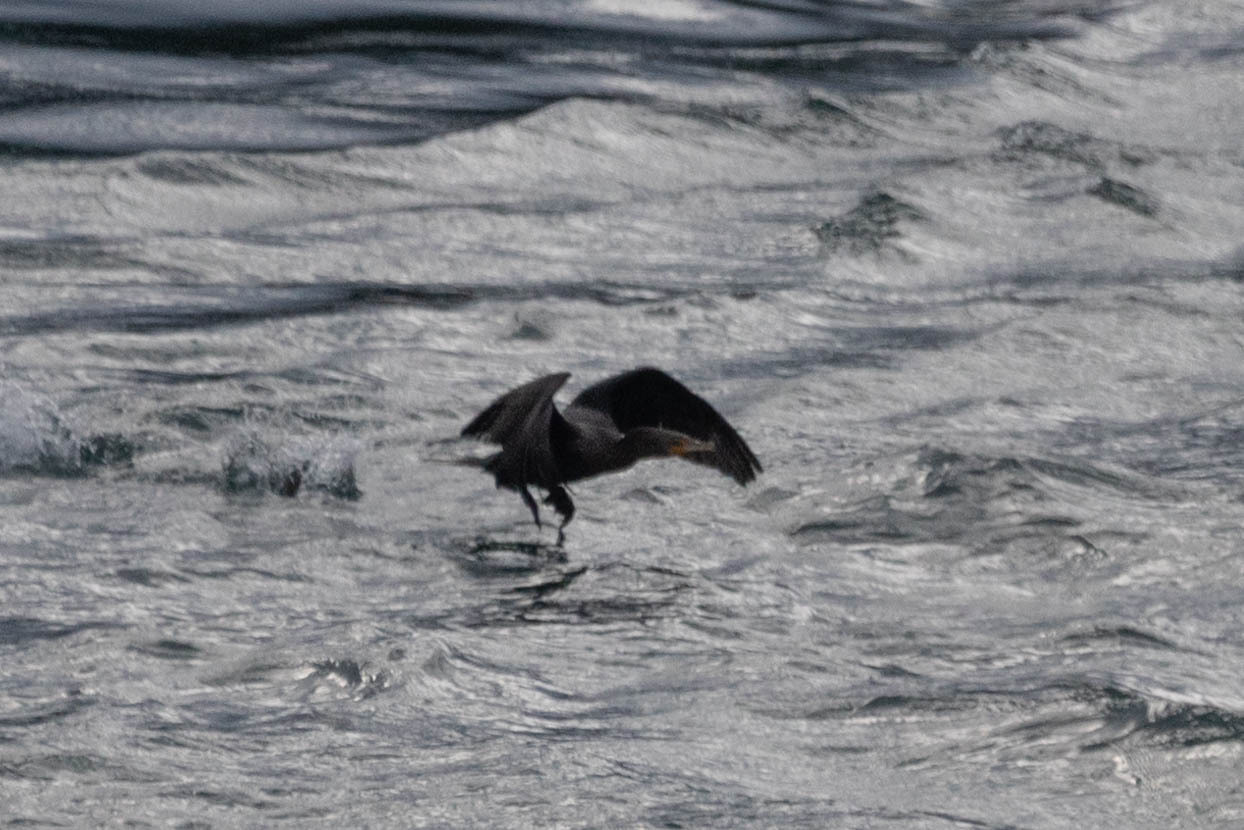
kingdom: Animalia
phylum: Chordata
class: Aves
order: Suliformes
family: Phalacrocoracidae
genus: Phalacrocorax
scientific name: Phalacrocorax auritus
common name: Double-crested cormorant
